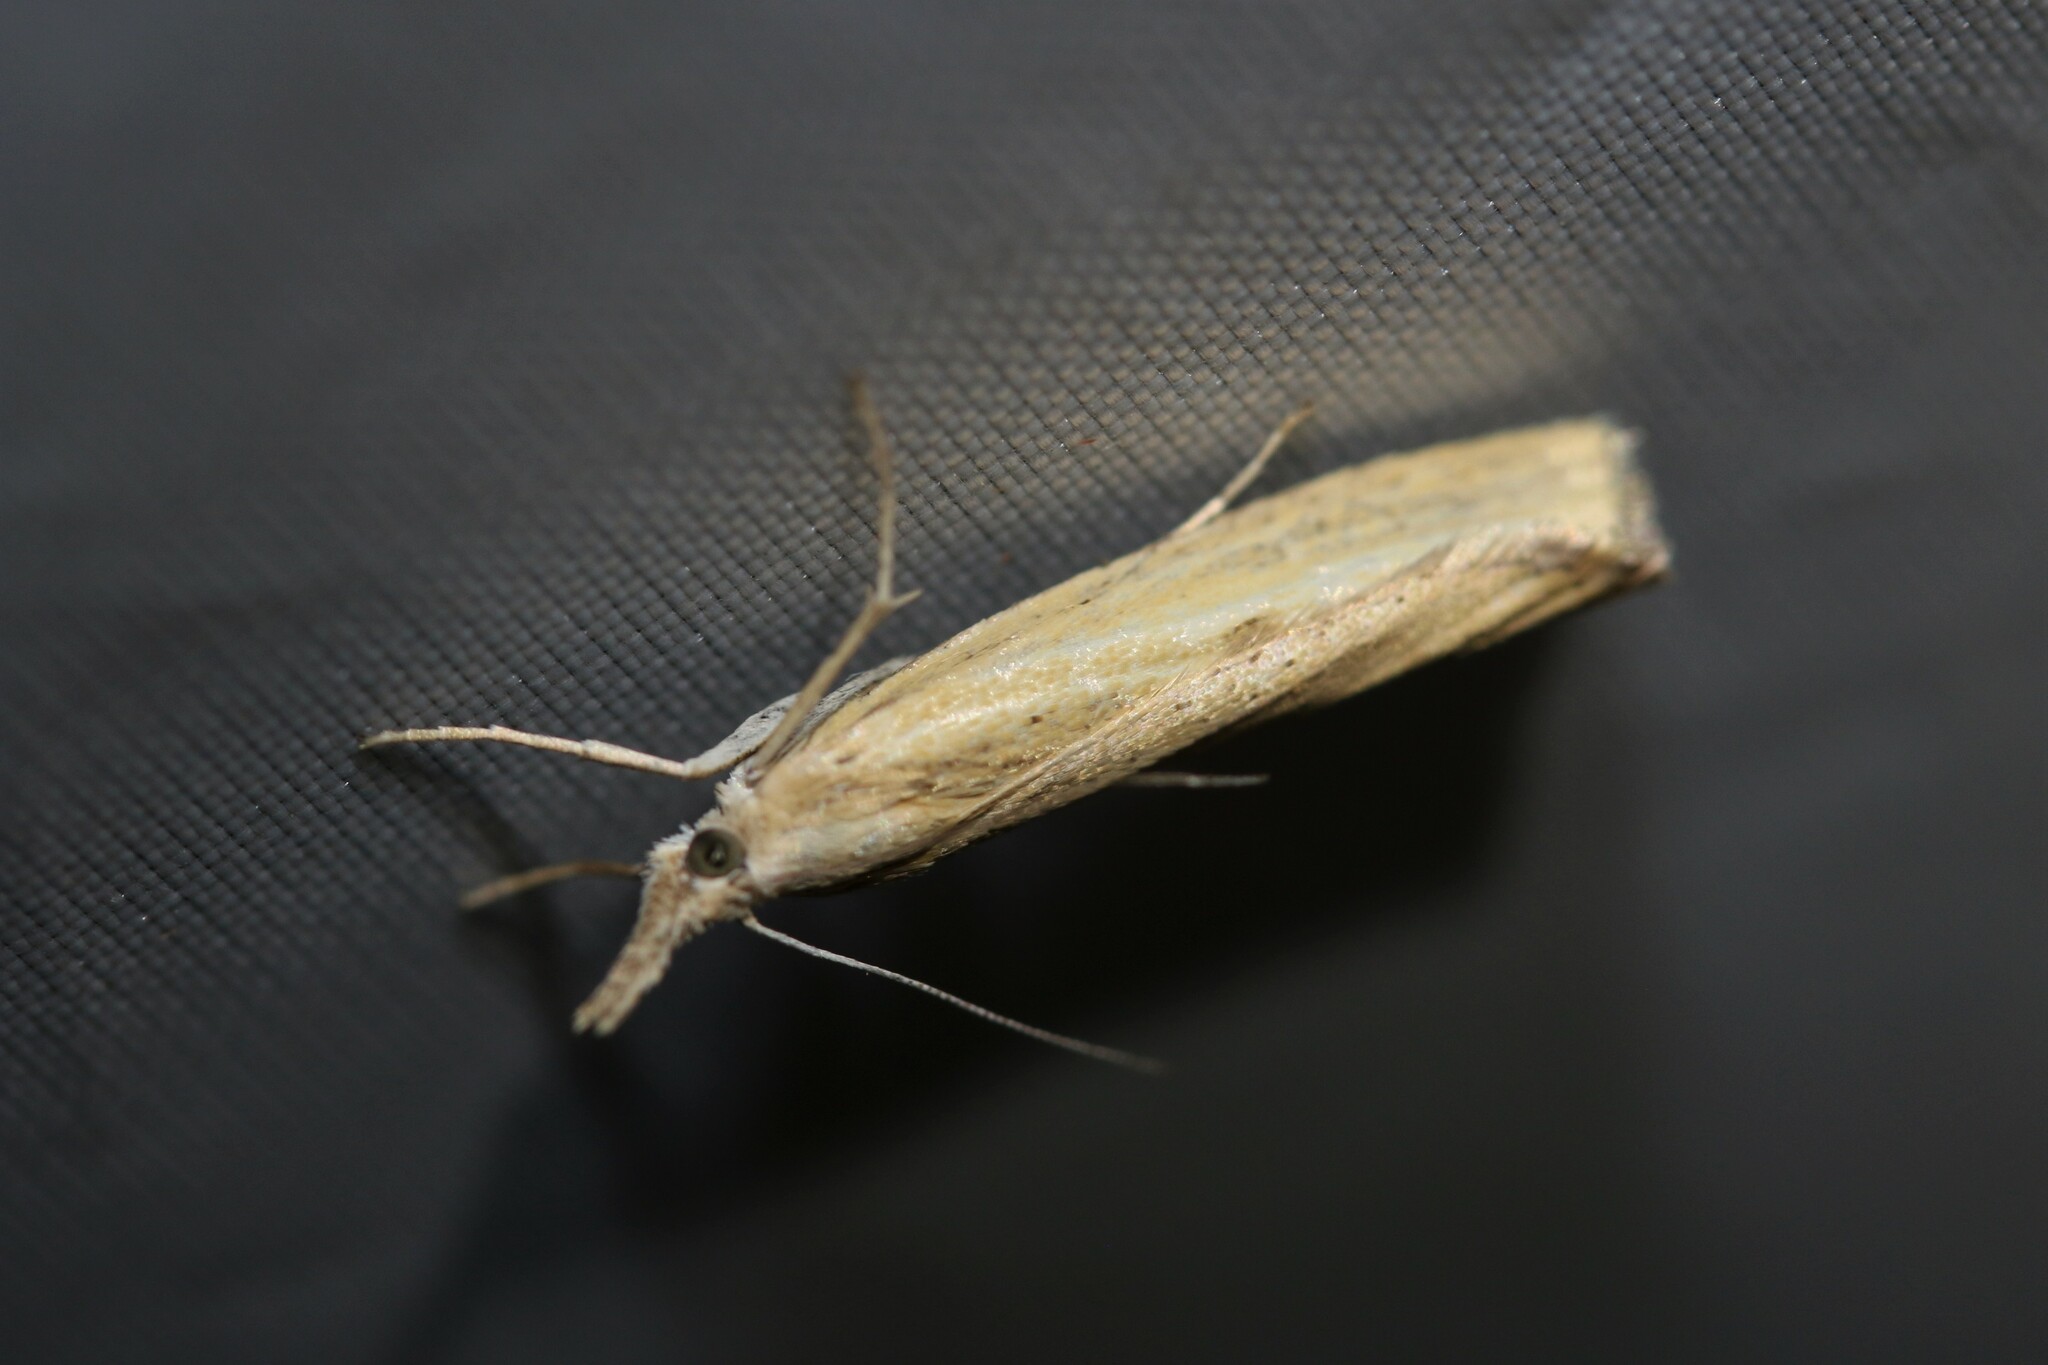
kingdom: Animalia
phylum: Arthropoda
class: Insecta
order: Lepidoptera
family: Crambidae
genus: Agriphila
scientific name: Agriphila inquinatella
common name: Barred grass-veneer
